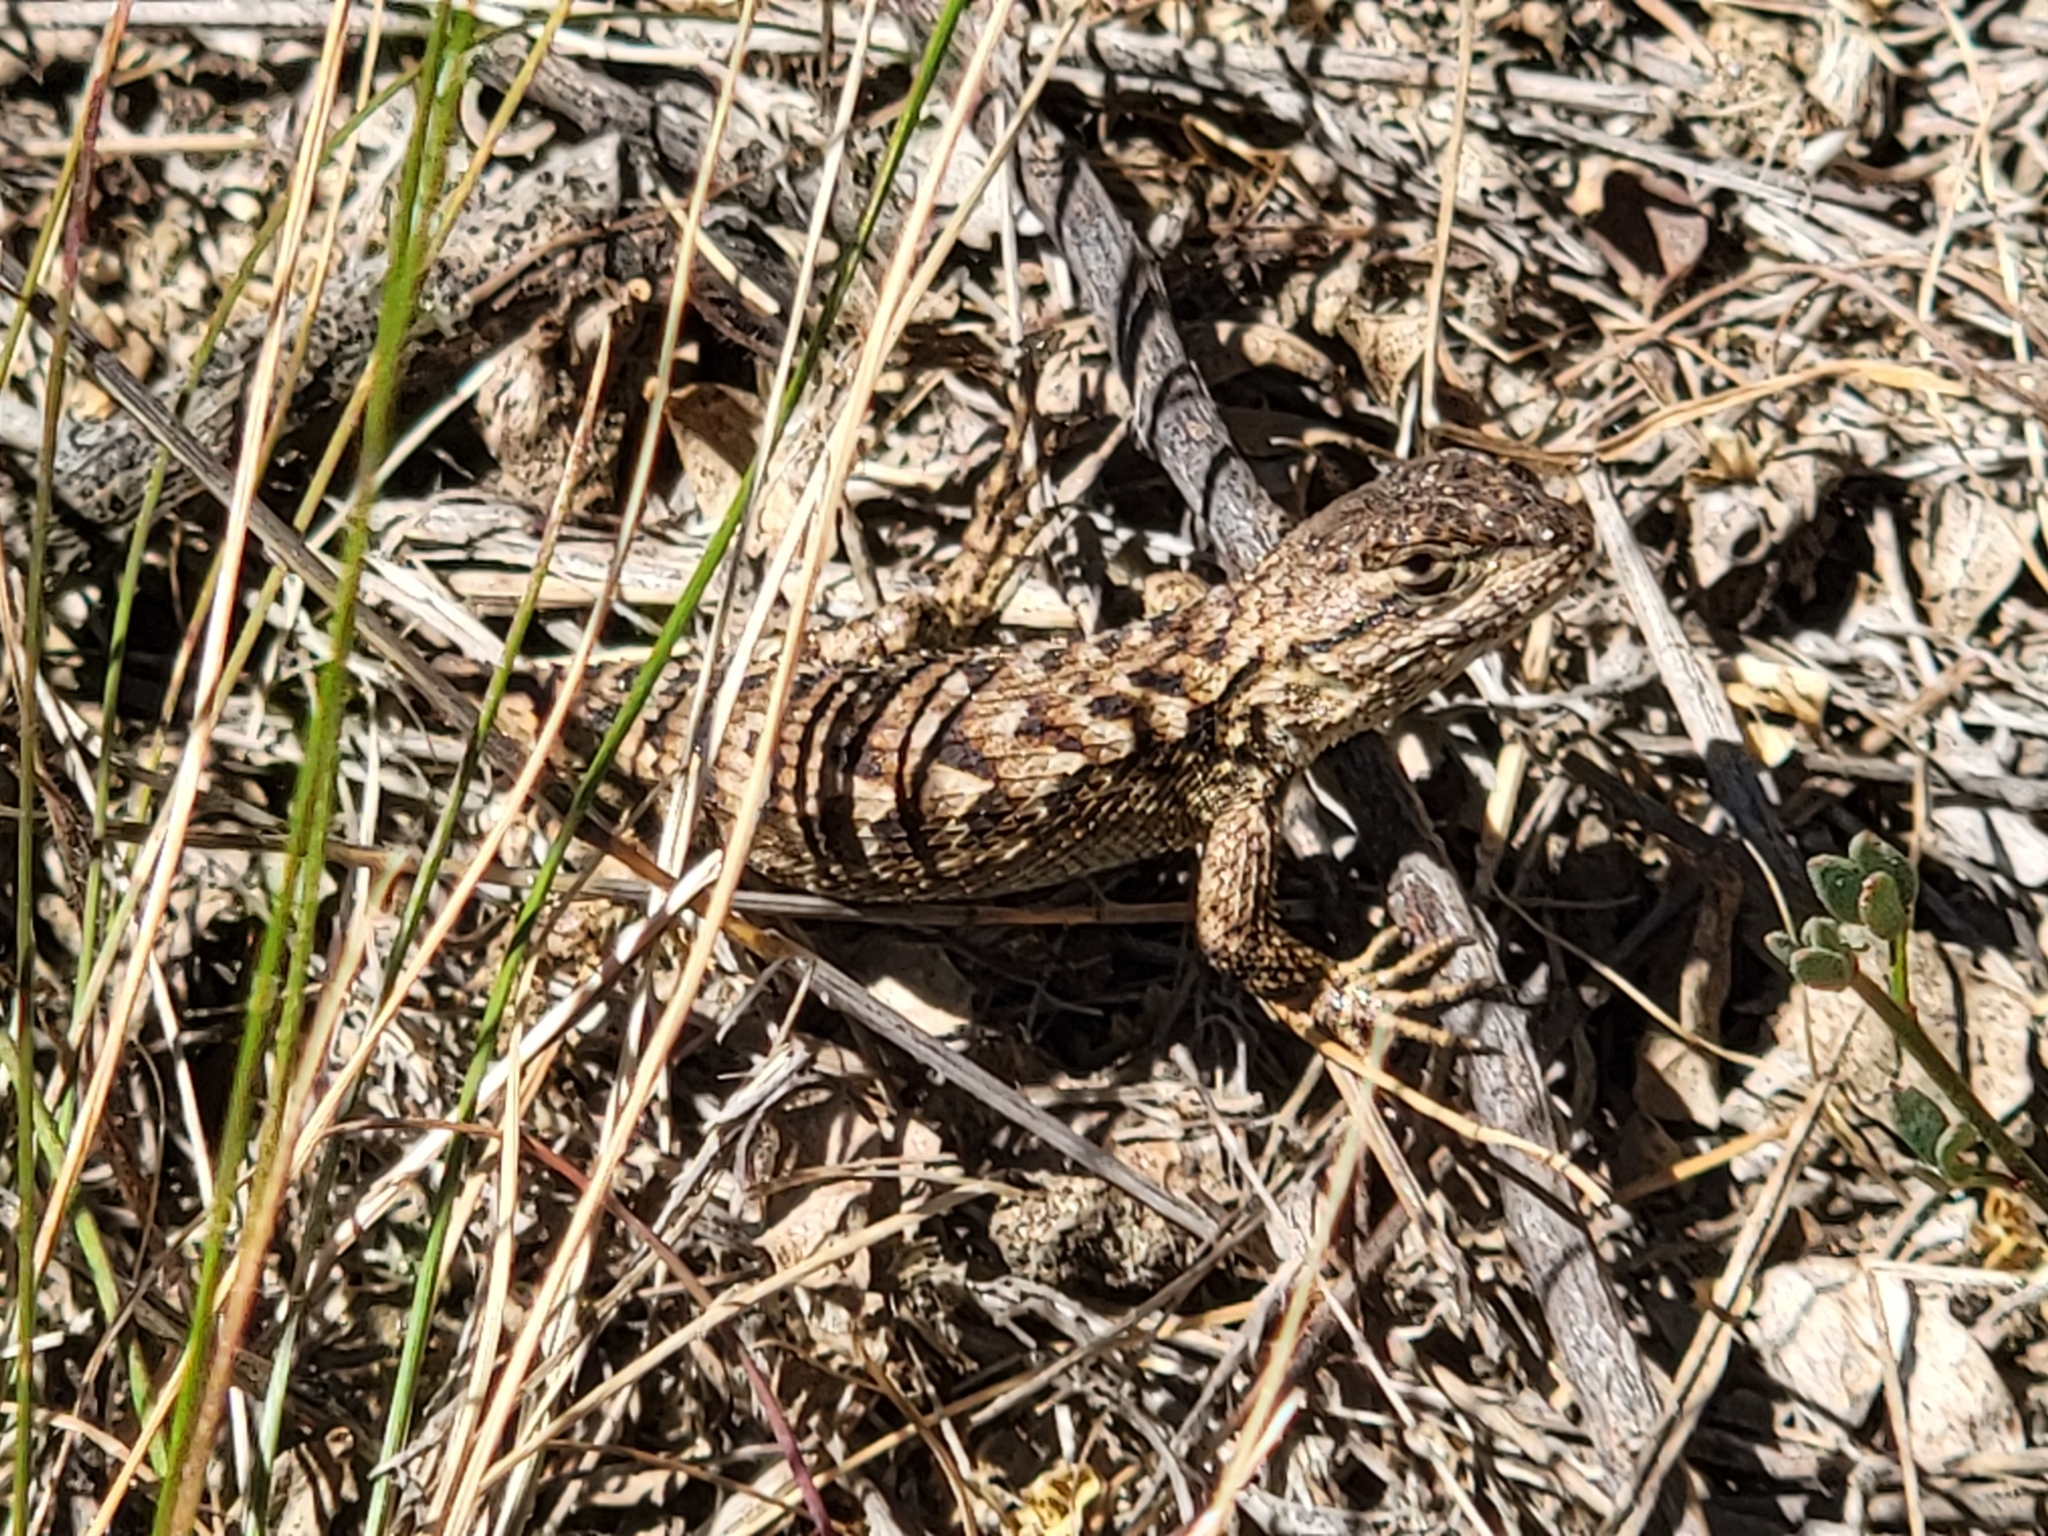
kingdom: Animalia
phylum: Chordata
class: Squamata
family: Phrynosomatidae
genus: Sceloporus
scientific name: Sceloporus occidentalis
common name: Western fence lizard
